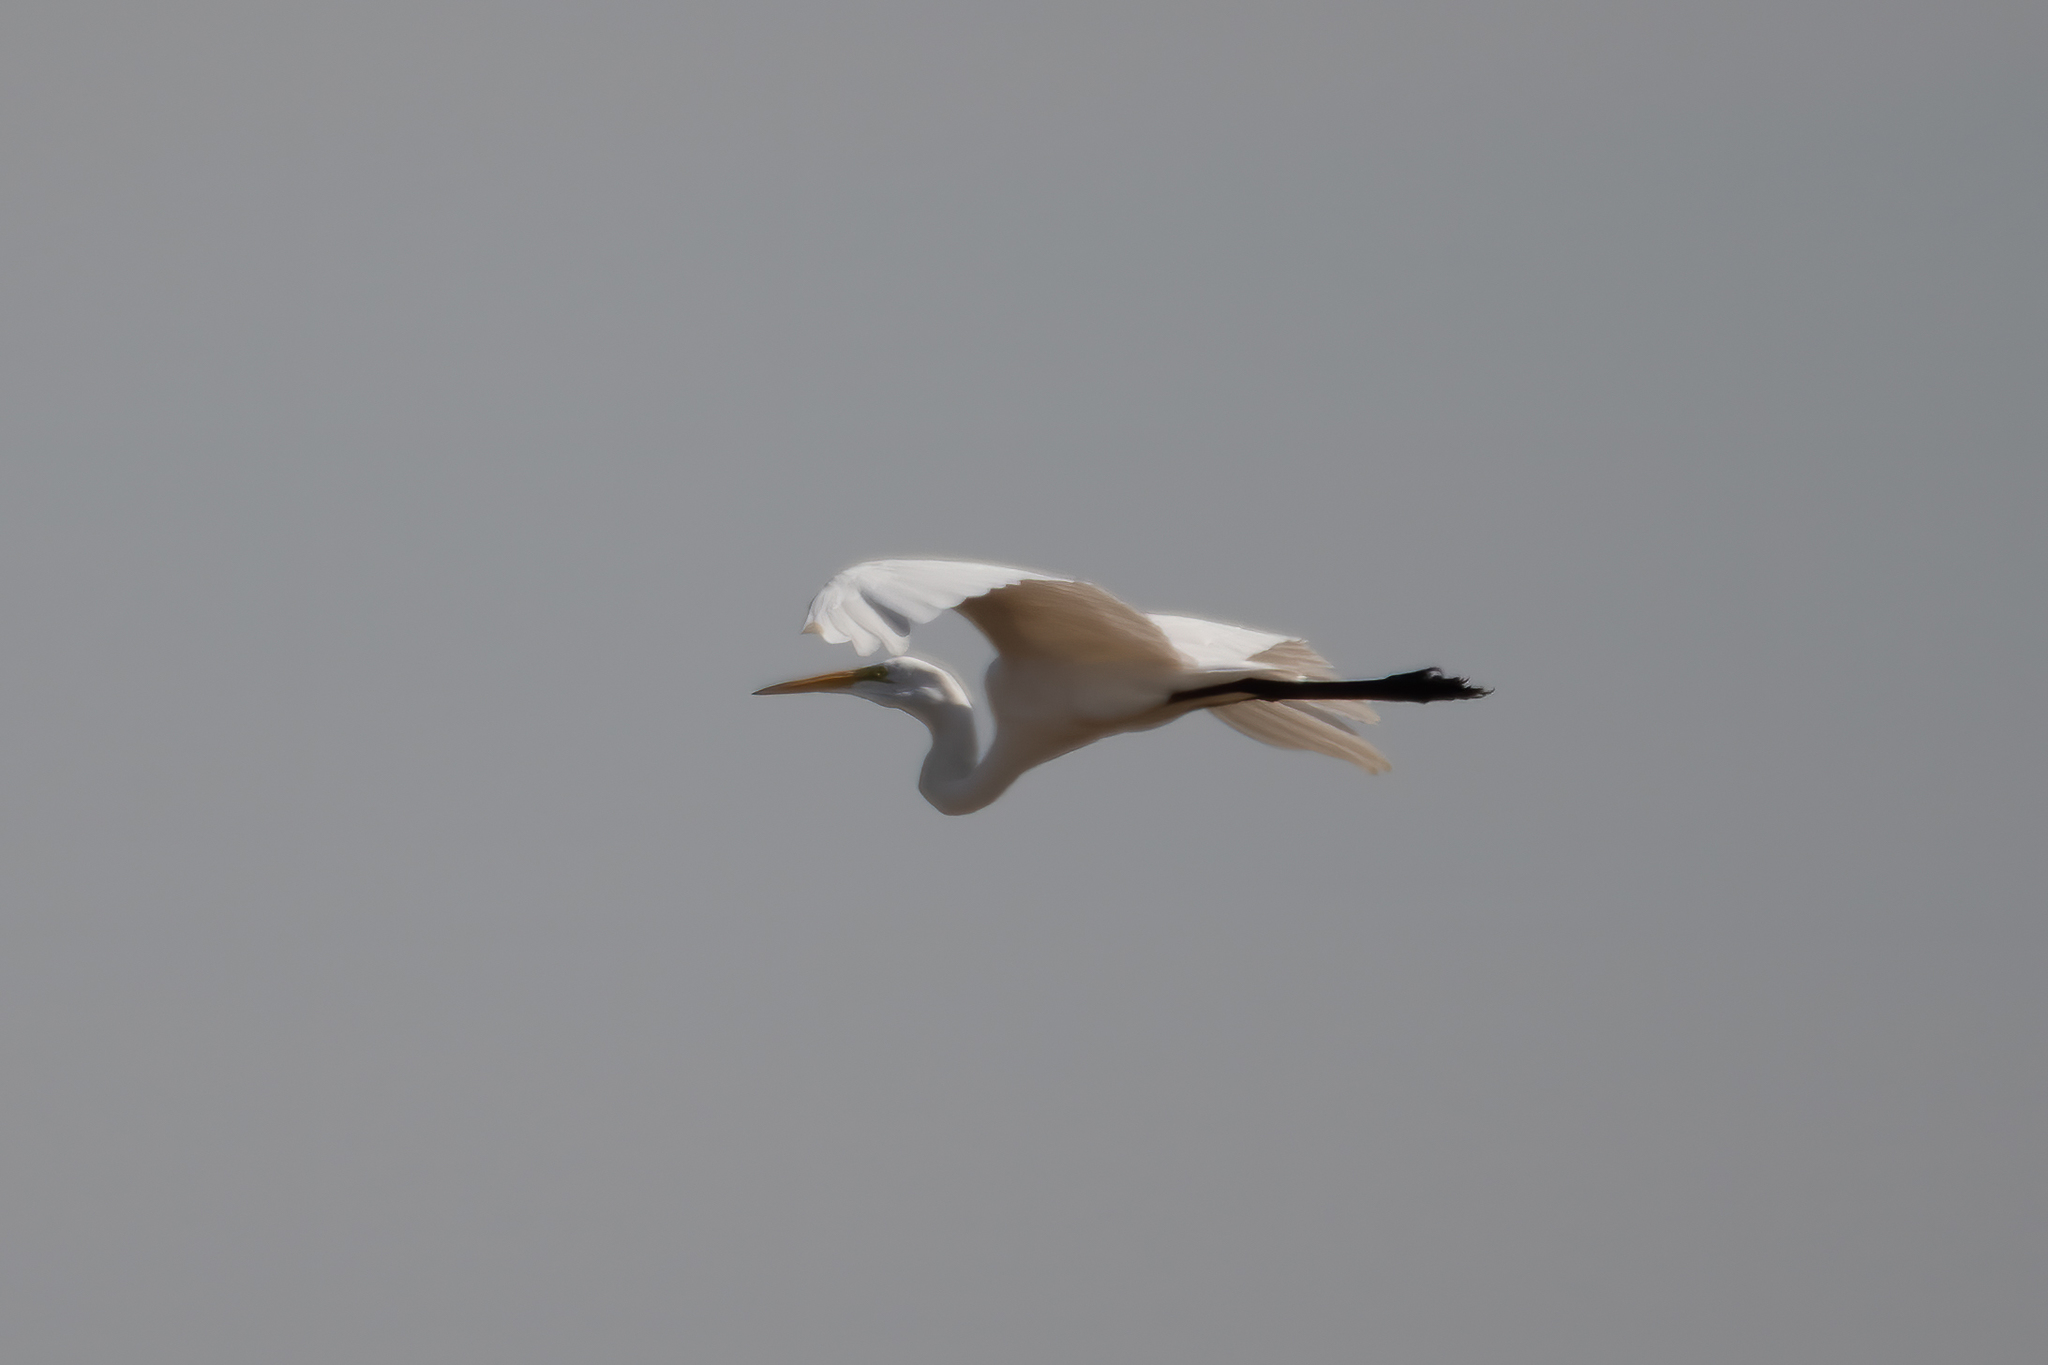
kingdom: Animalia
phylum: Chordata
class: Aves
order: Pelecaniformes
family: Ardeidae
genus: Ardea
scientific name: Ardea alba
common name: Great egret
